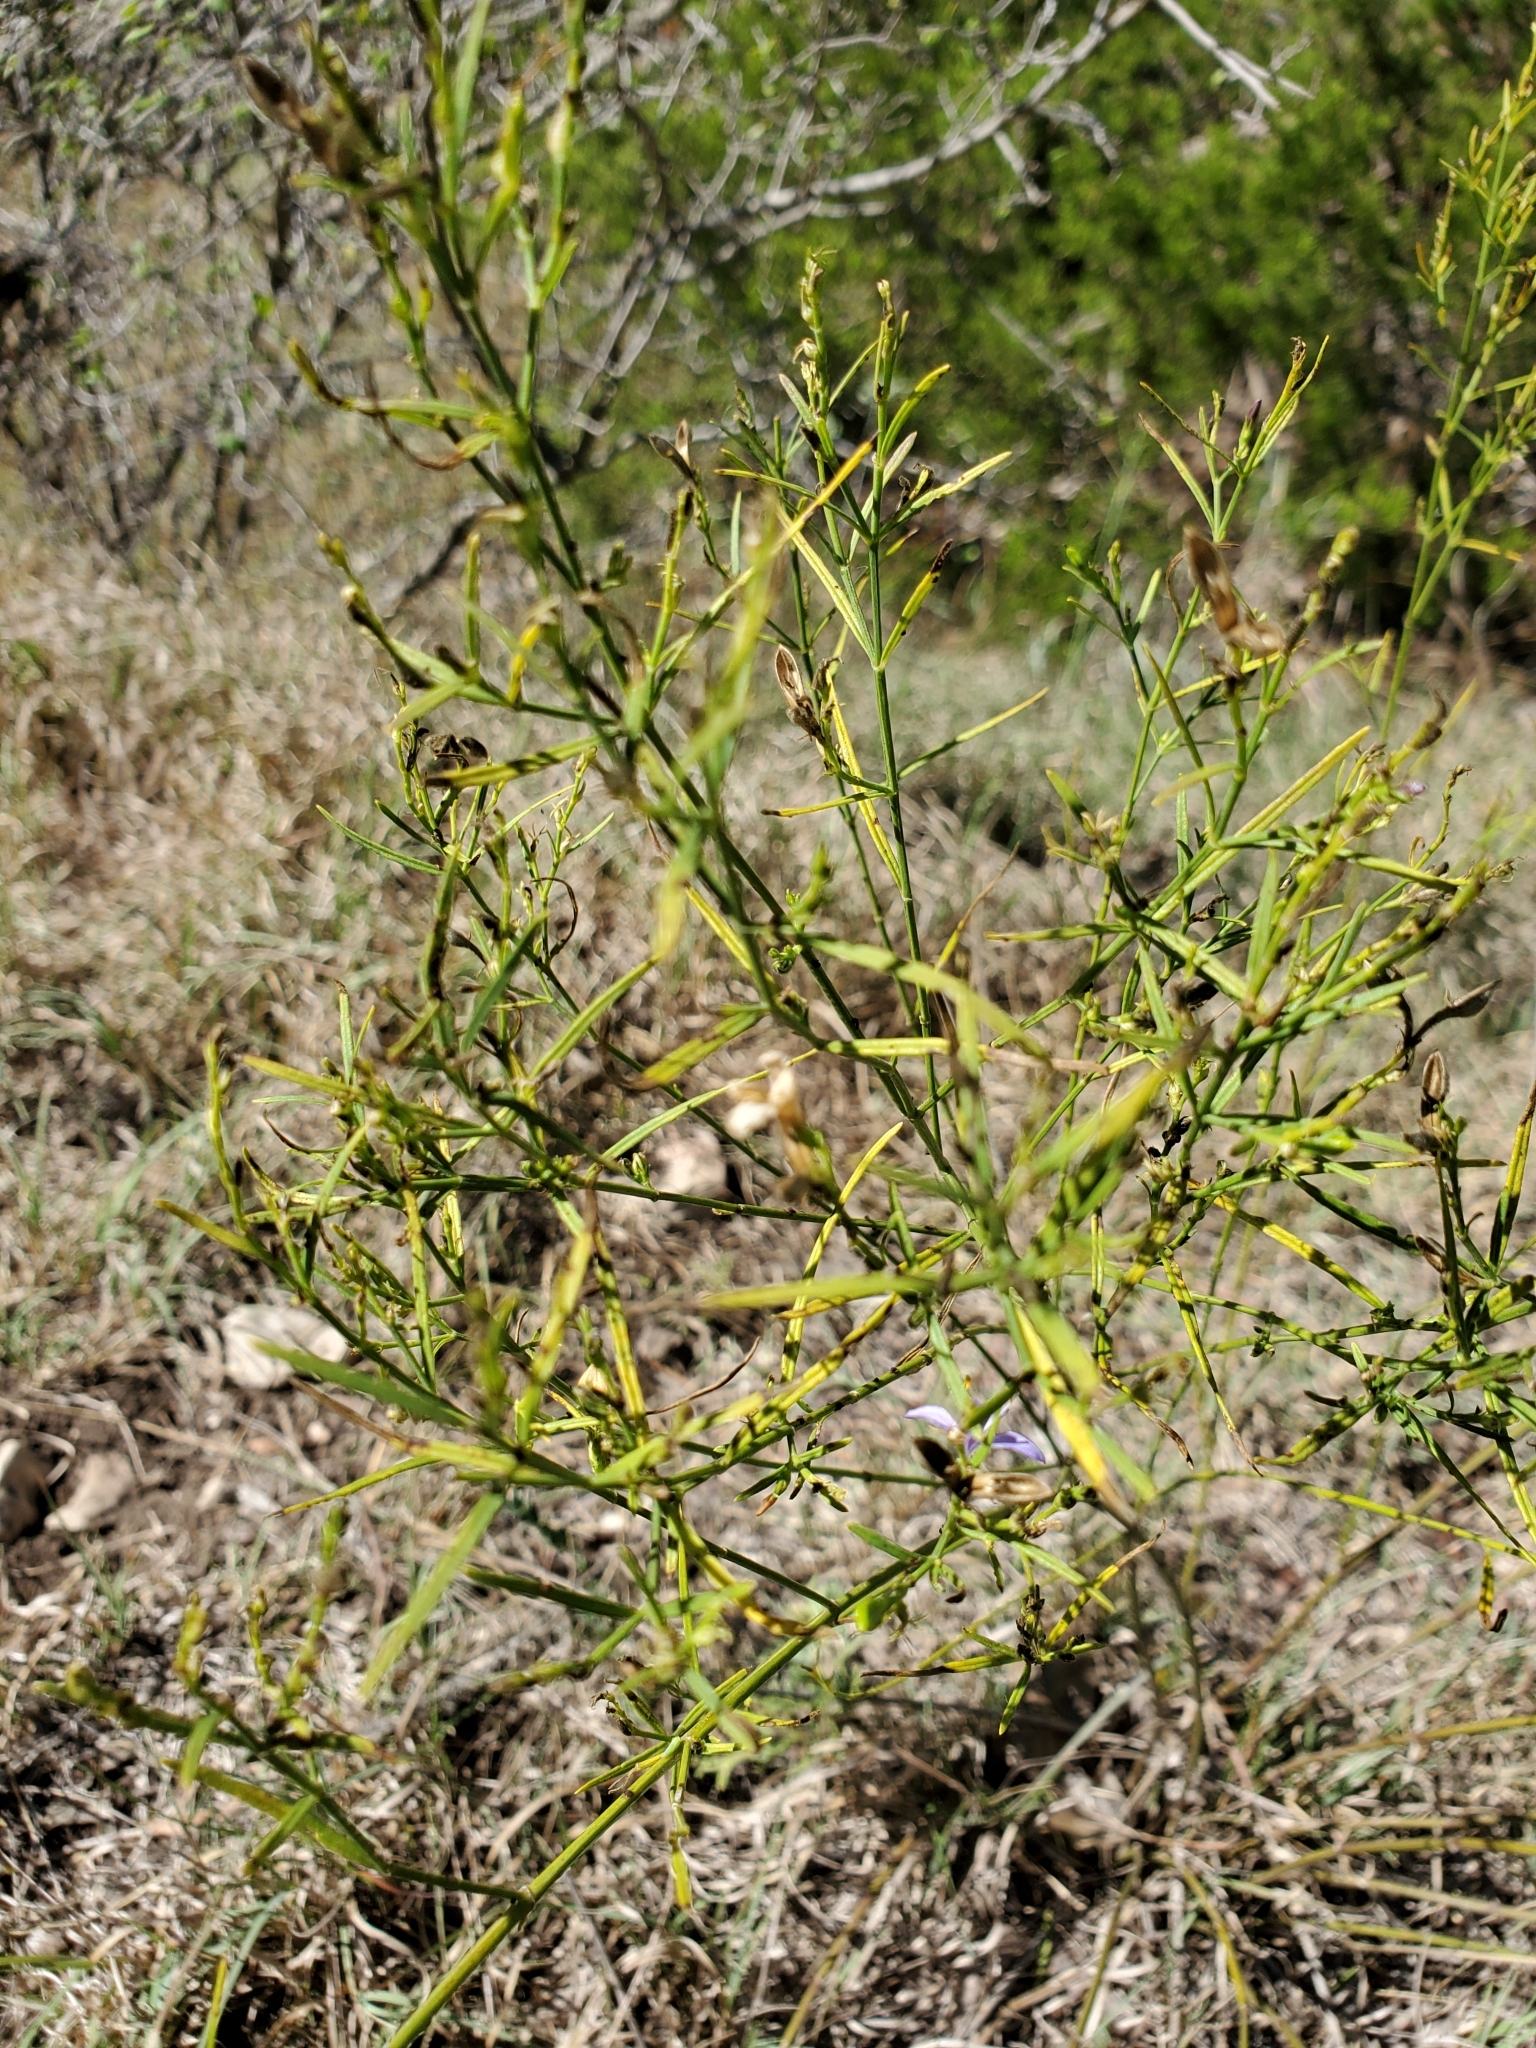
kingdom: Plantae
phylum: Tracheophyta
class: Magnoliopsida
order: Lamiales
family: Acanthaceae
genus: Carlowrightia
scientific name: Carlowrightia linearifolia
